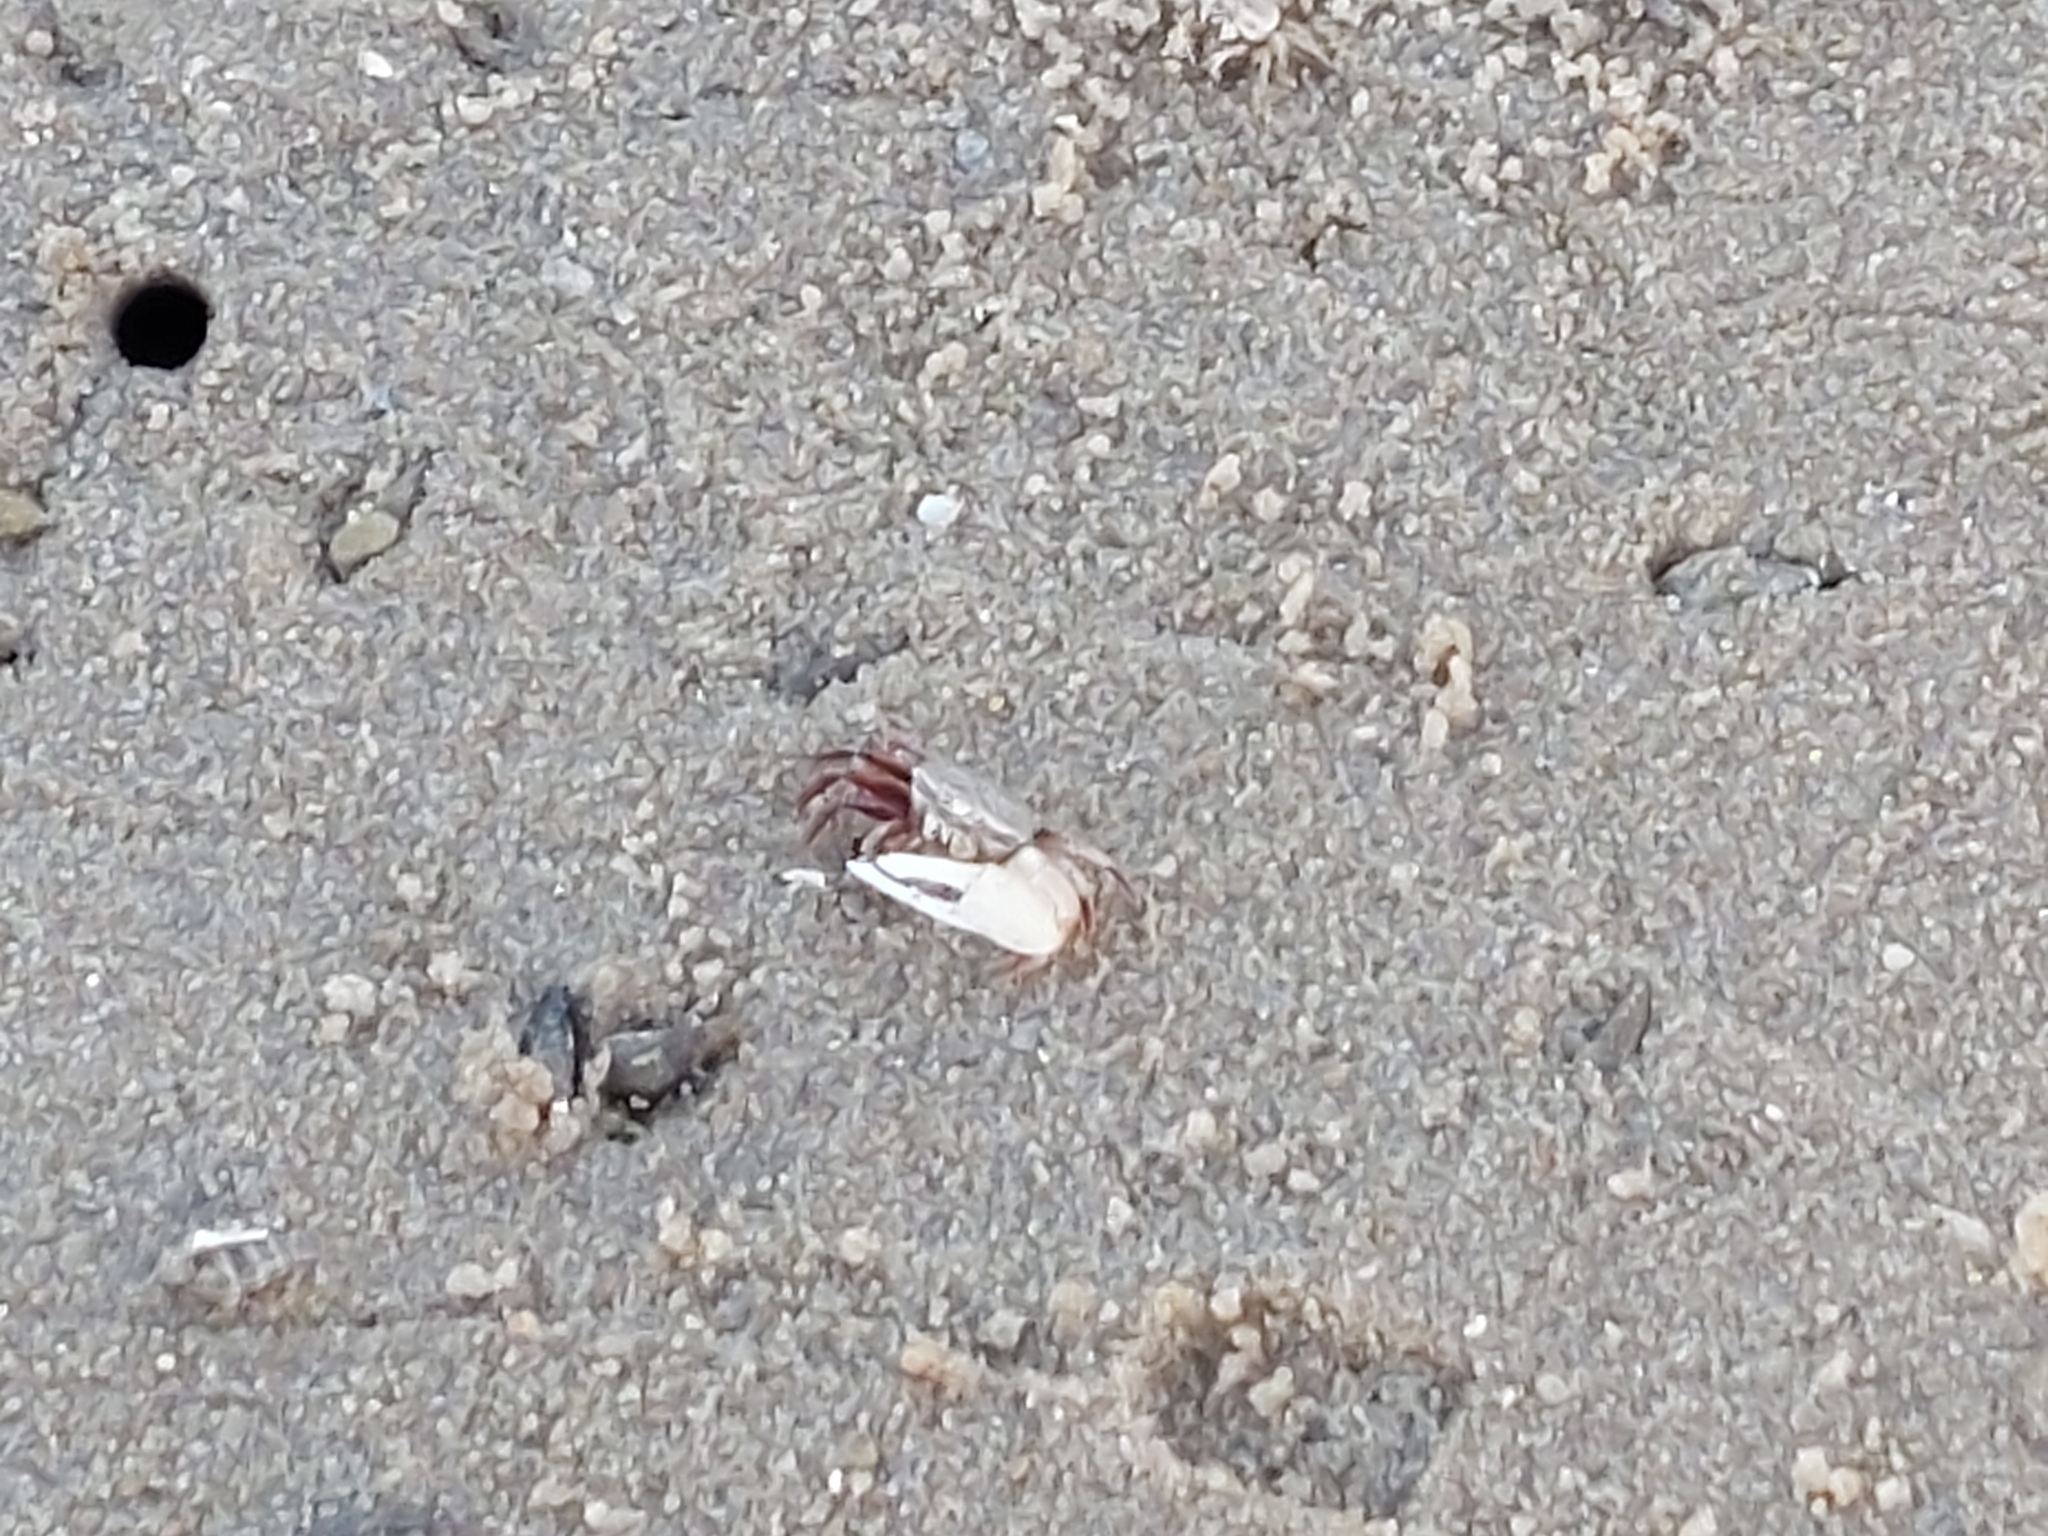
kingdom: Animalia
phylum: Arthropoda
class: Malacostraca
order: Decapoda
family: Ocypodidae
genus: Austruca
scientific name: Austruca lactea
